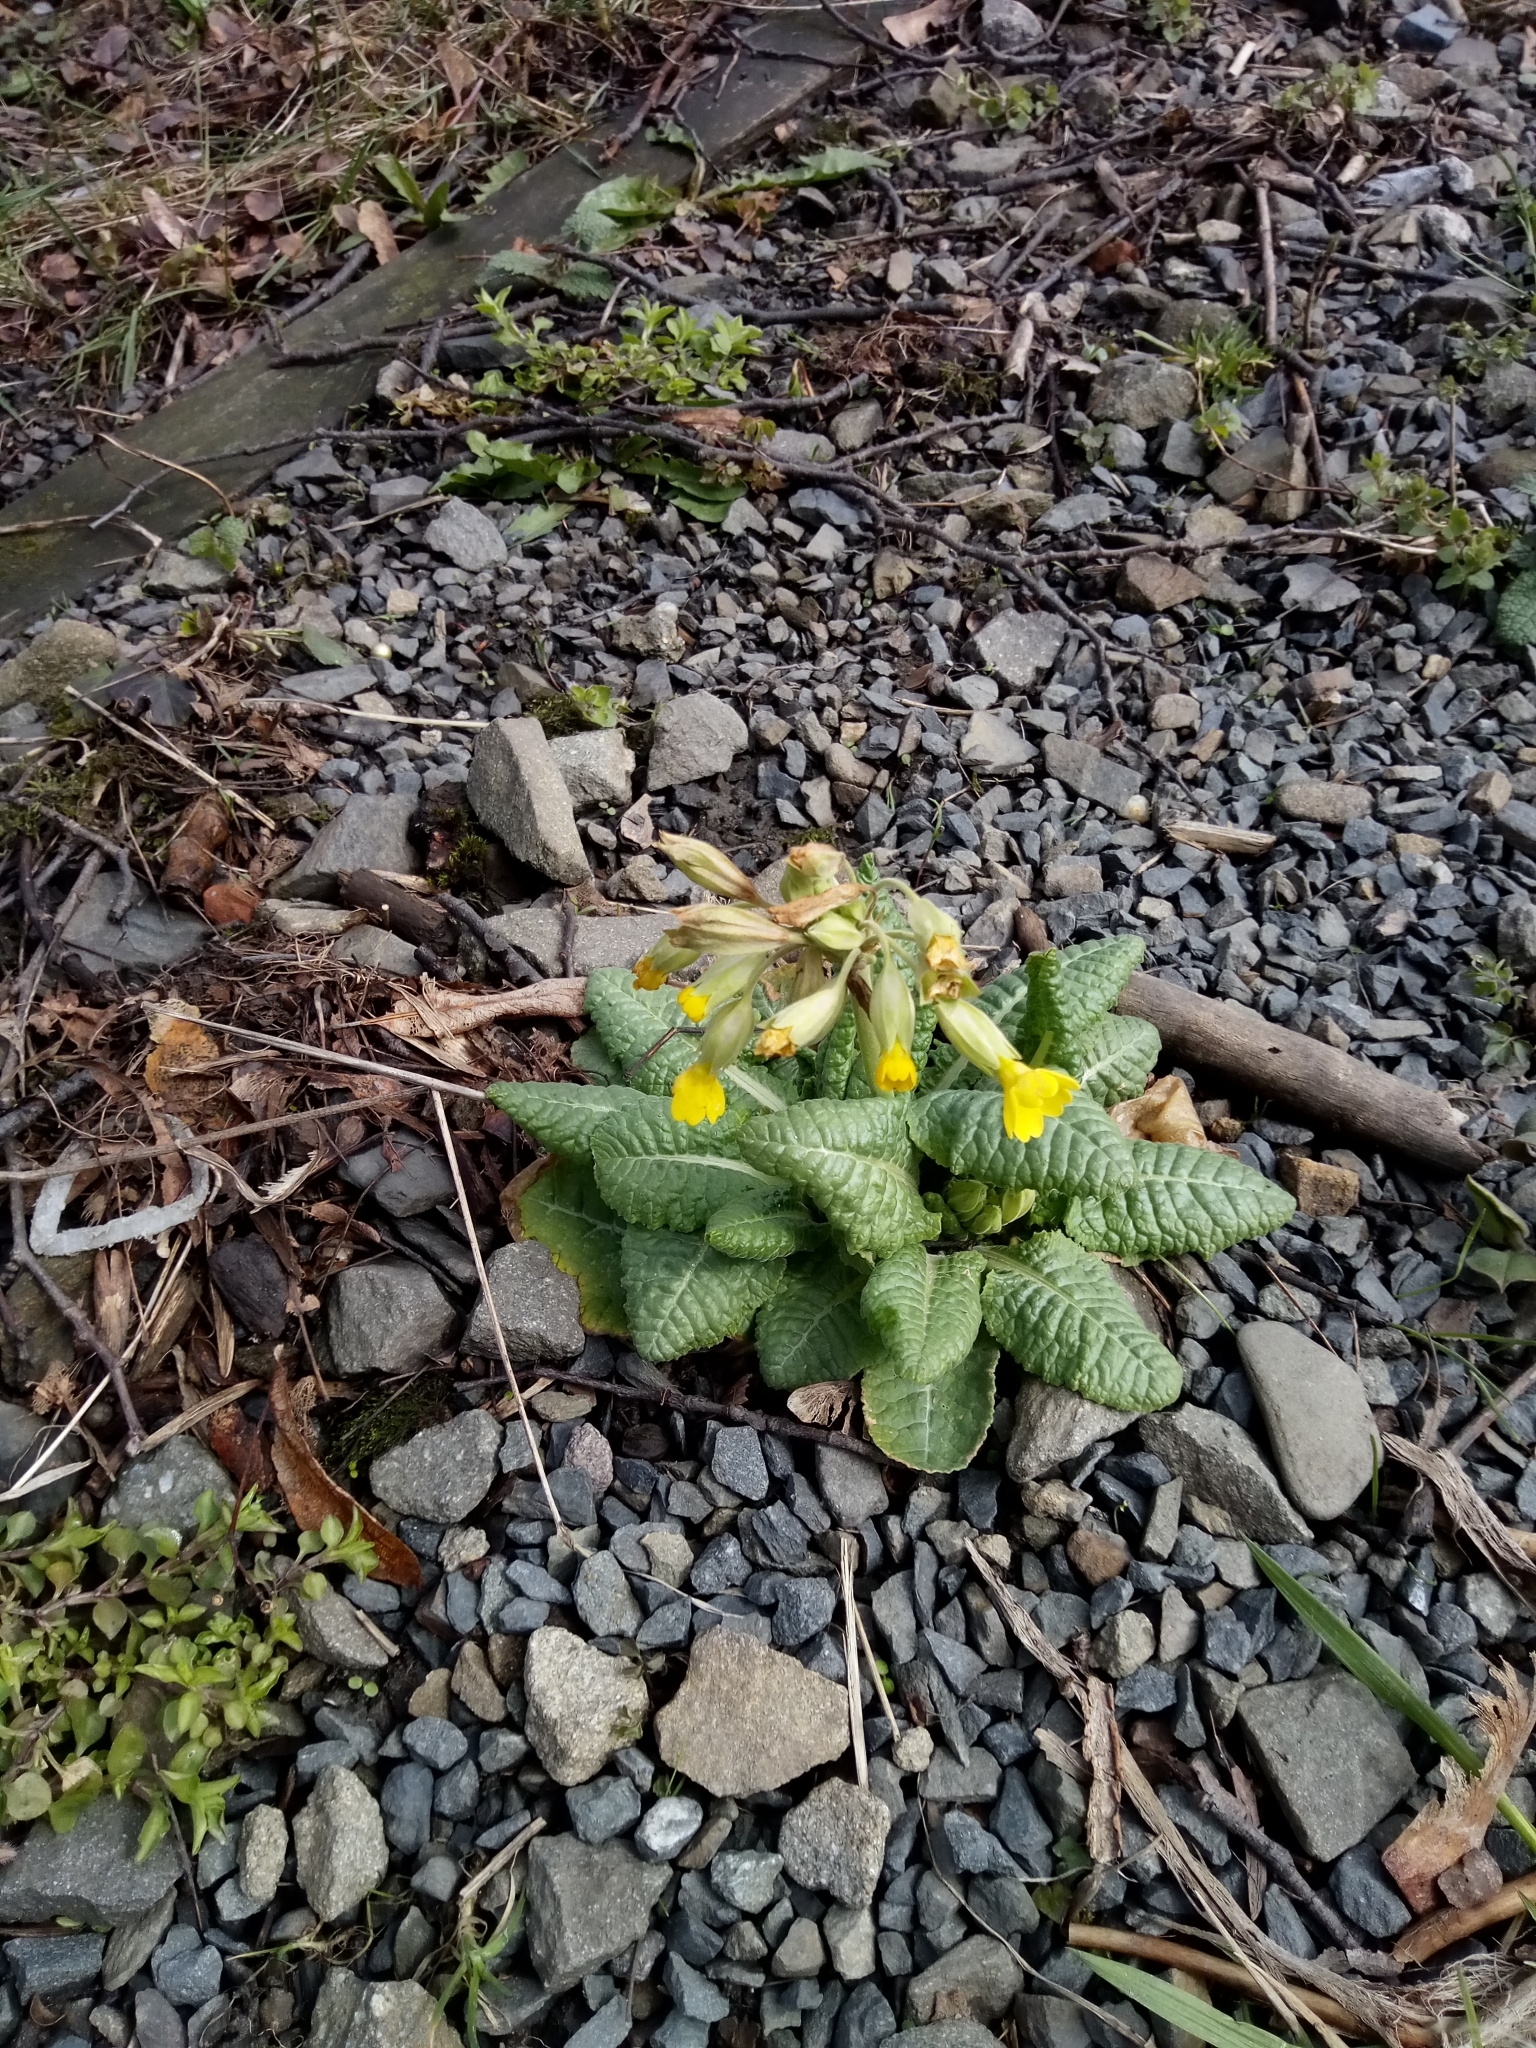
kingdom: Plantae
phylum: Tracheophyta
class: Magnoliopsida
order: Ericales
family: Primulaceae
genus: Primula
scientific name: Primula veris
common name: Cowslip
